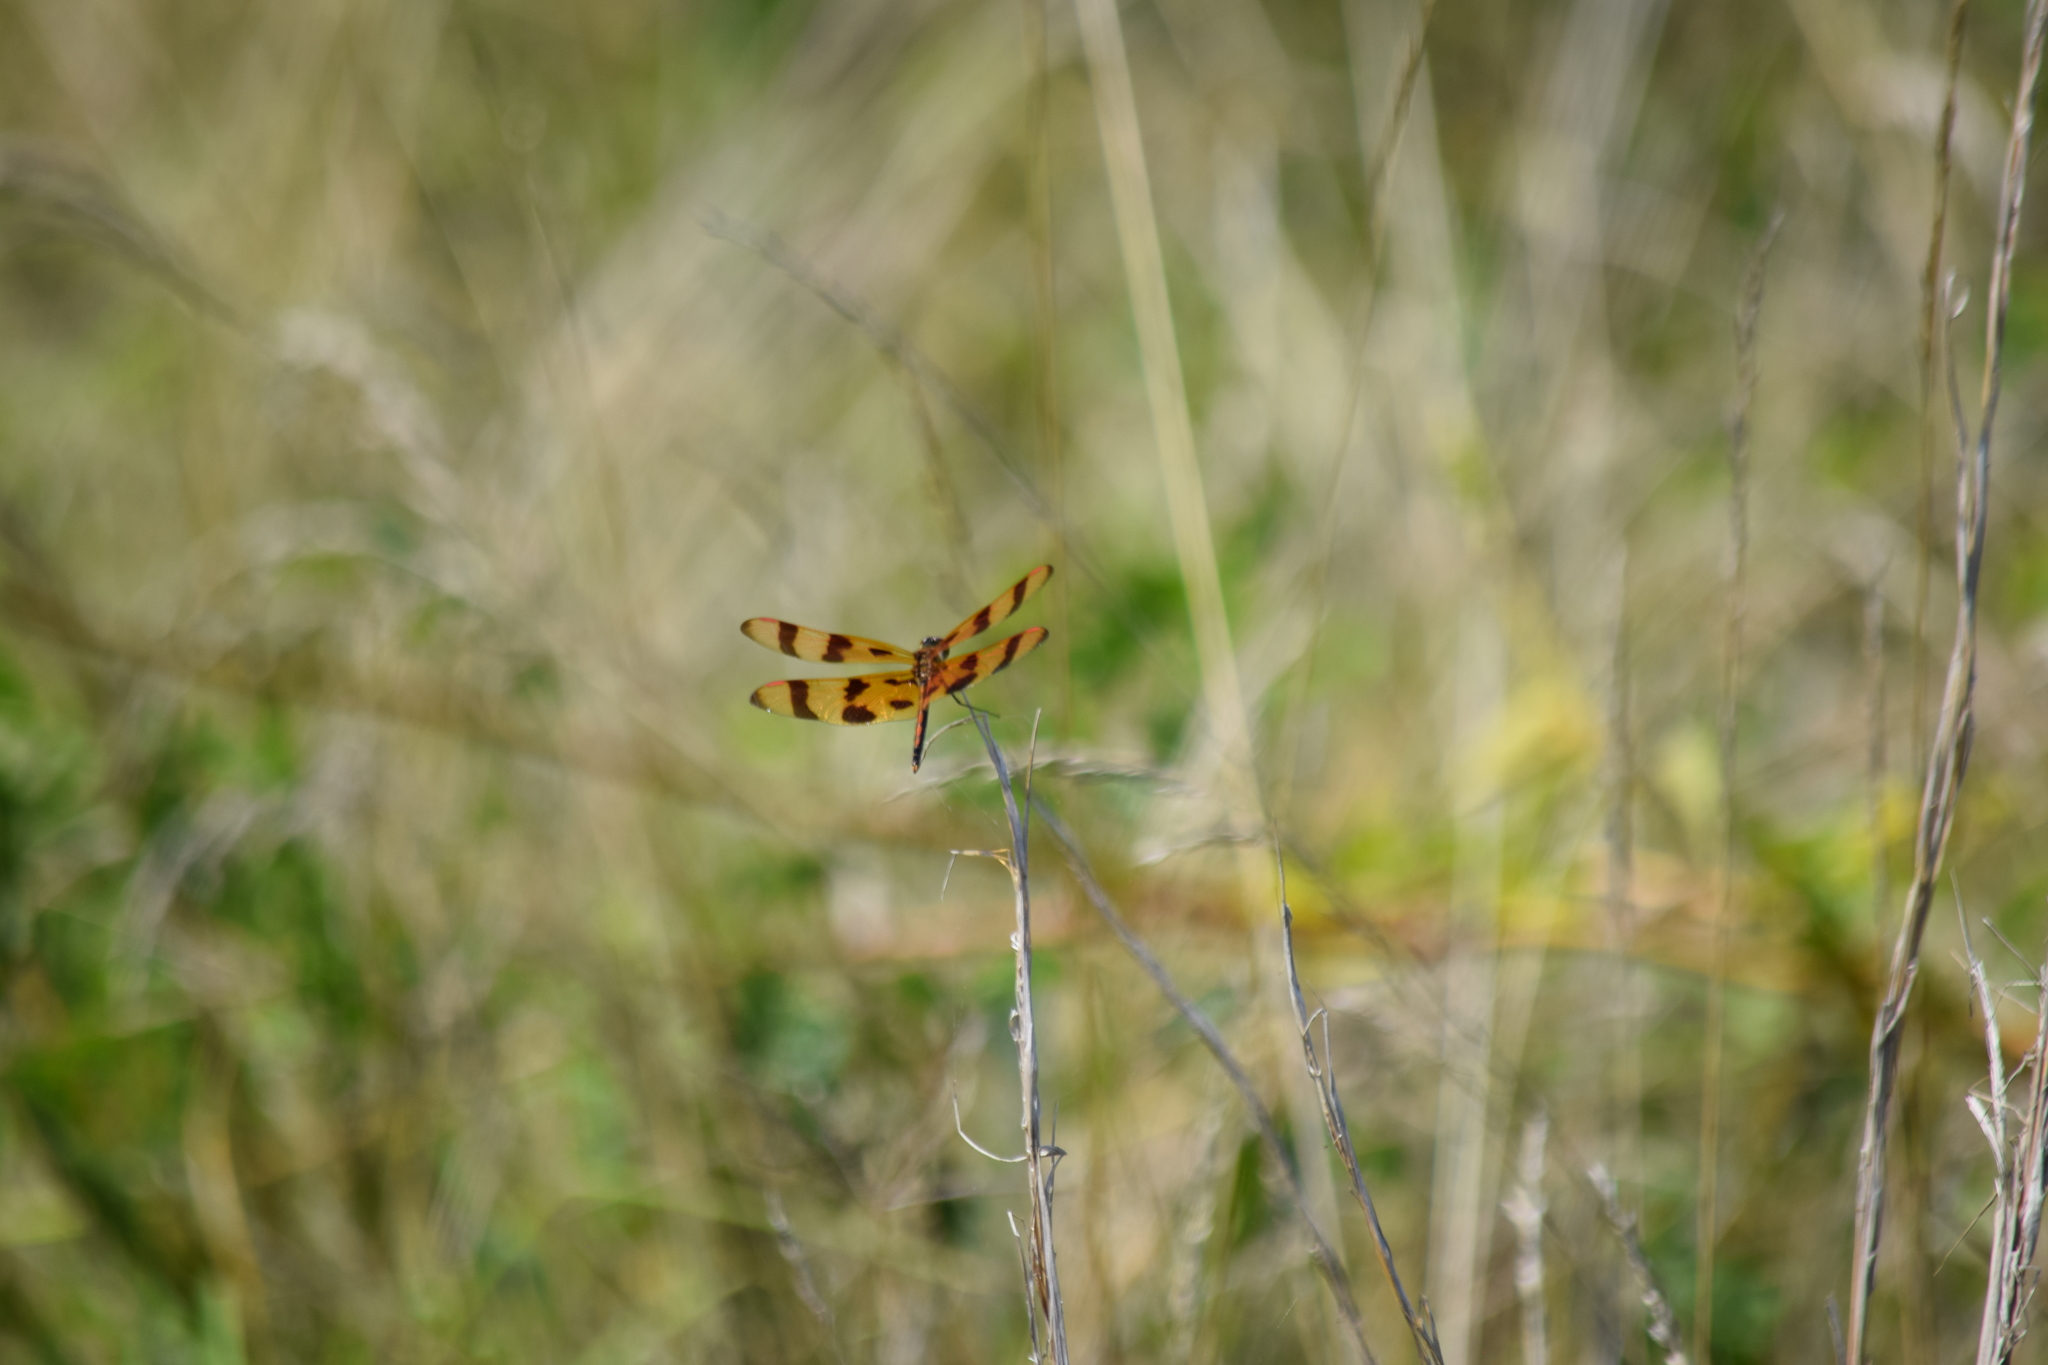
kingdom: Animalia
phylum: Arthropoda
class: Insecta
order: Odonata
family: Libellulidae
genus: Celithemis
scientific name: Celithemis eponina
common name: Halloween pennant
